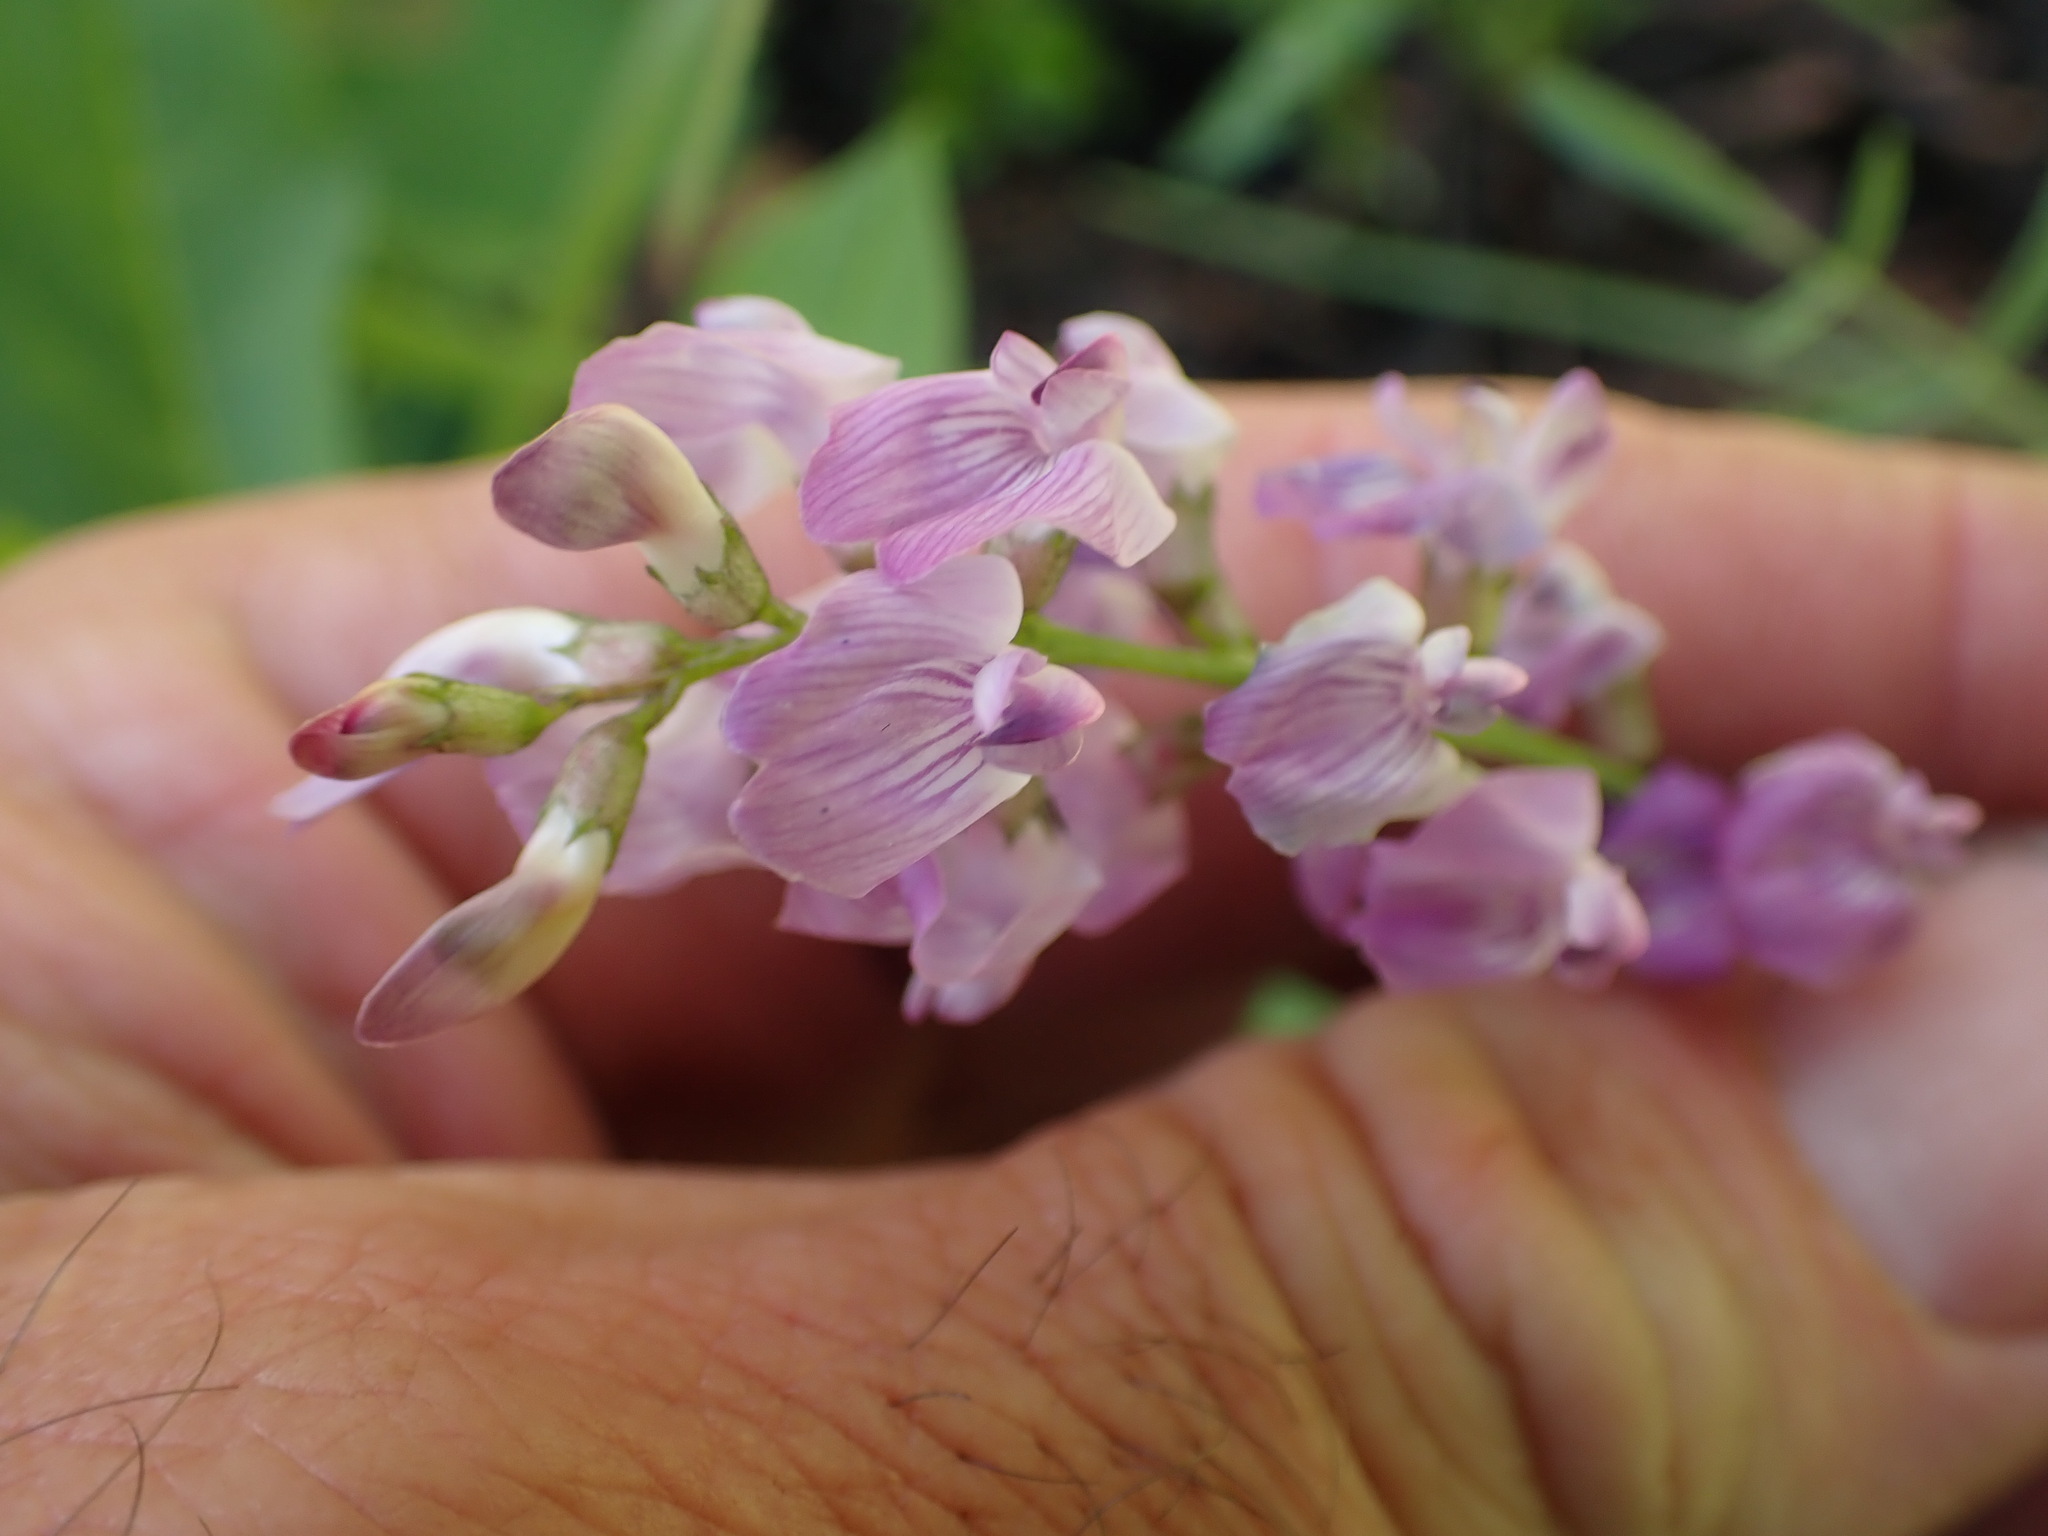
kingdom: Plantae
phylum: Tracheophyta
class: Magnoliopsida
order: Fabales
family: Fabaceae
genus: Astragalus
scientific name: Astragalus miser
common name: Timber milkvetch
